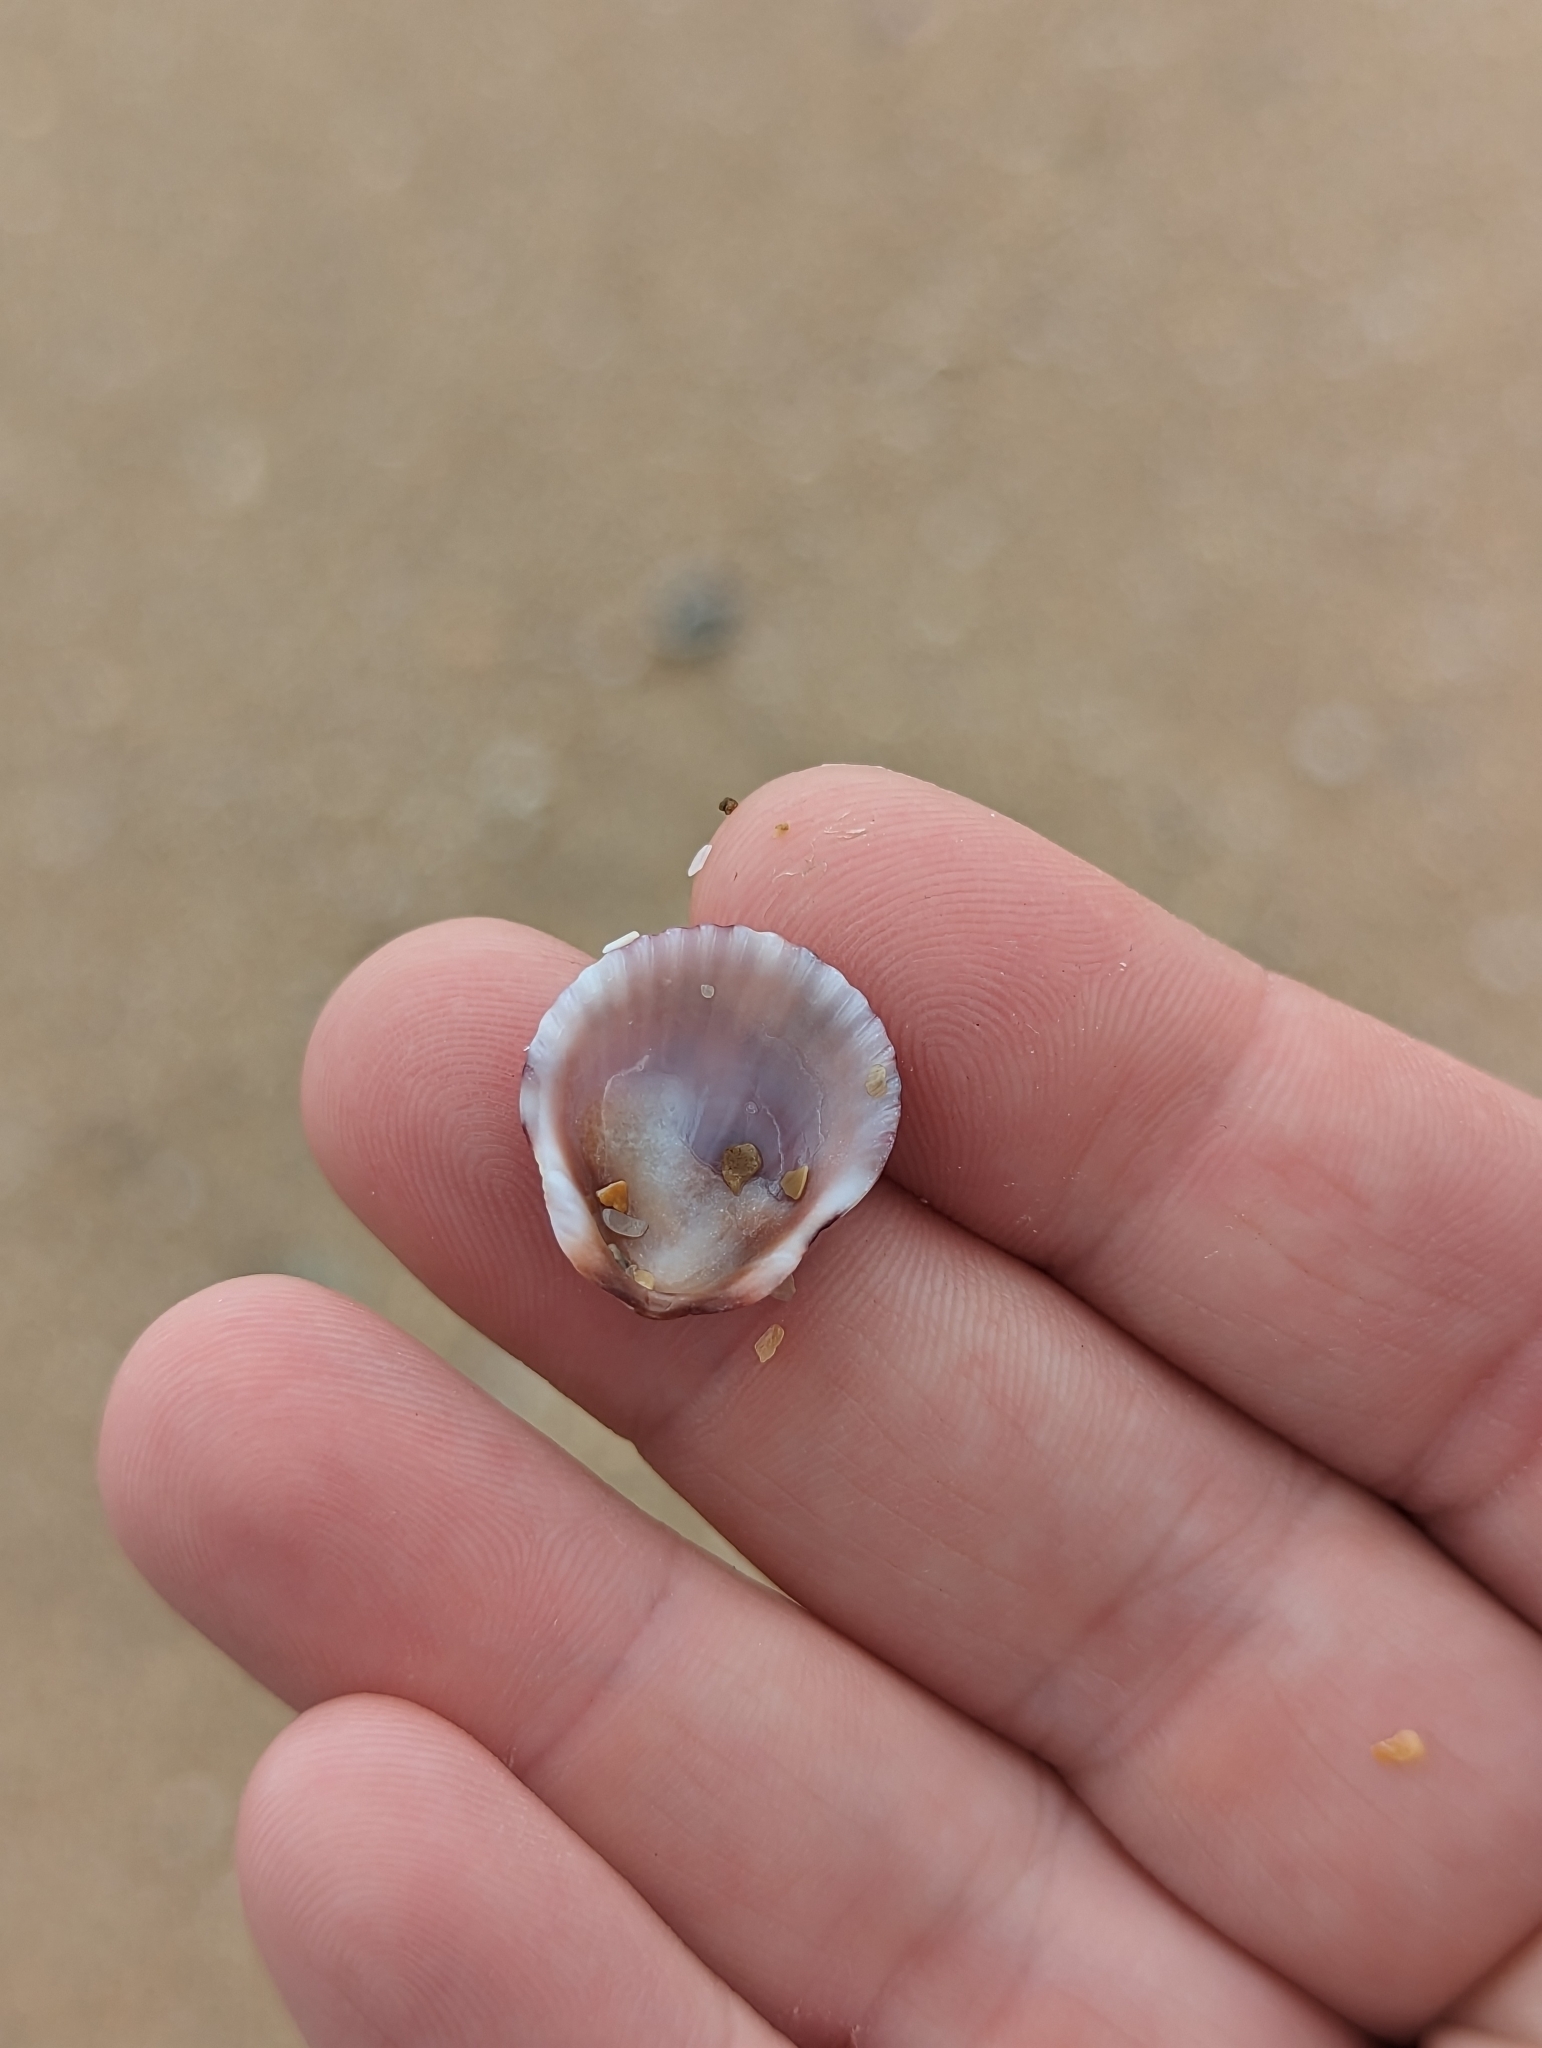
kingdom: Animalia
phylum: Mollusca
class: Bivalvia
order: Pectinida
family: Pectinidae
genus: Argopecten
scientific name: Argopecten gibbus
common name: Atlantic calico scallop
